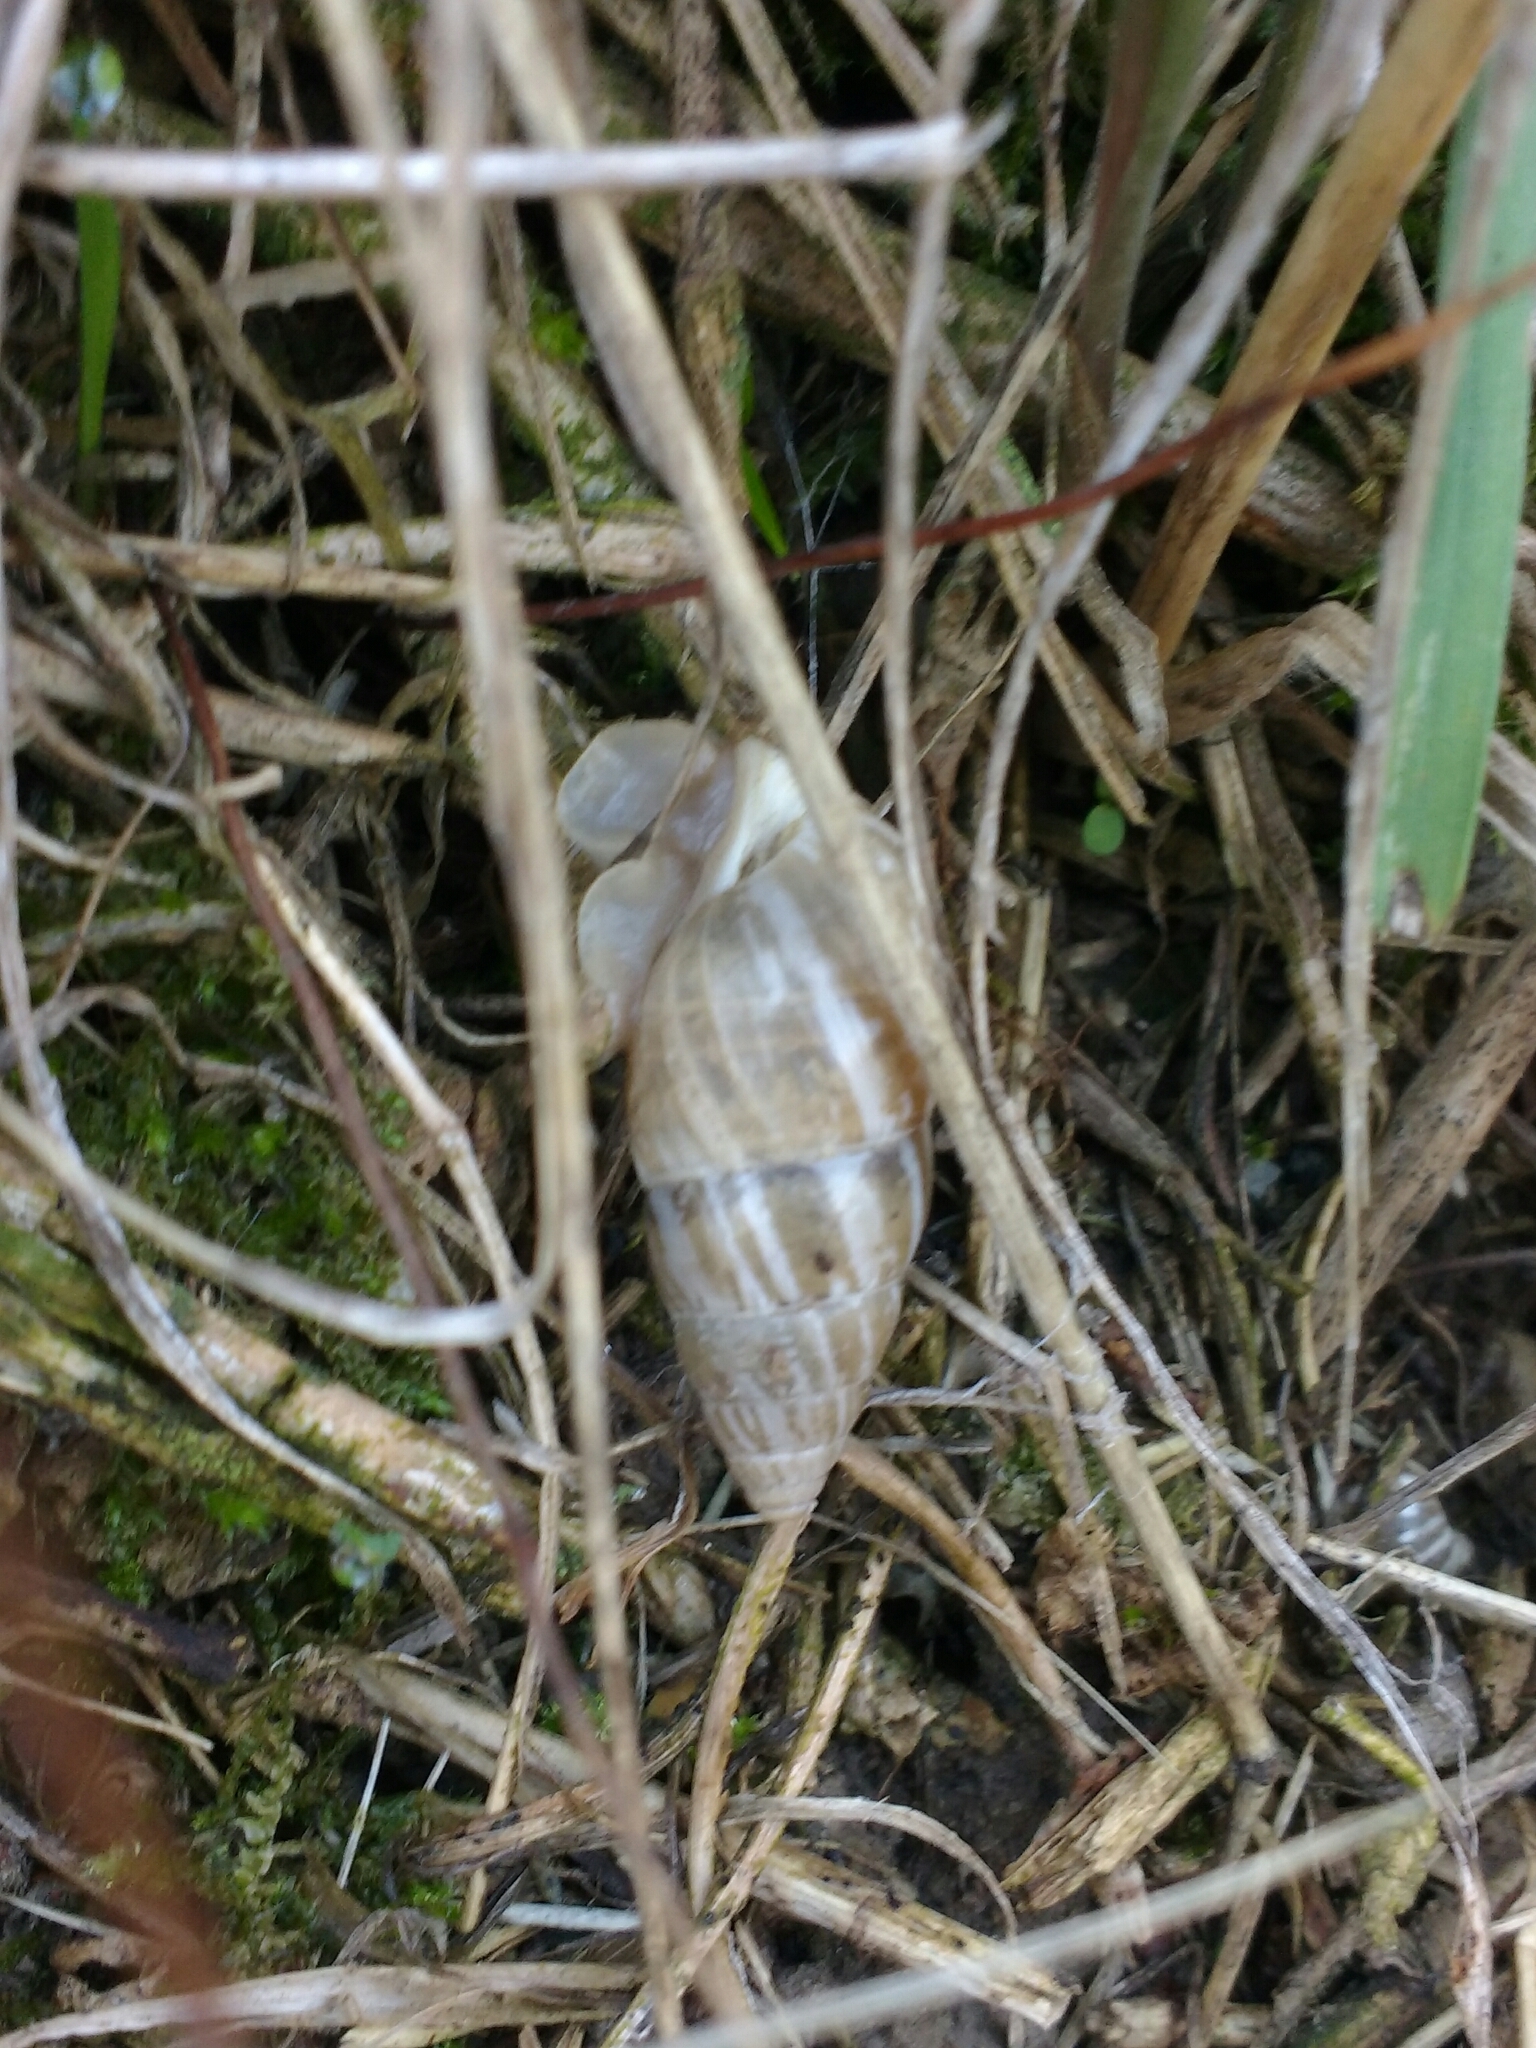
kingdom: Animalia
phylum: Mollusca
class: Gastropoda
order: Stylommatophora
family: Enidae
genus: Zebrina
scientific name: Zebrina detrita
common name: Large bulin
